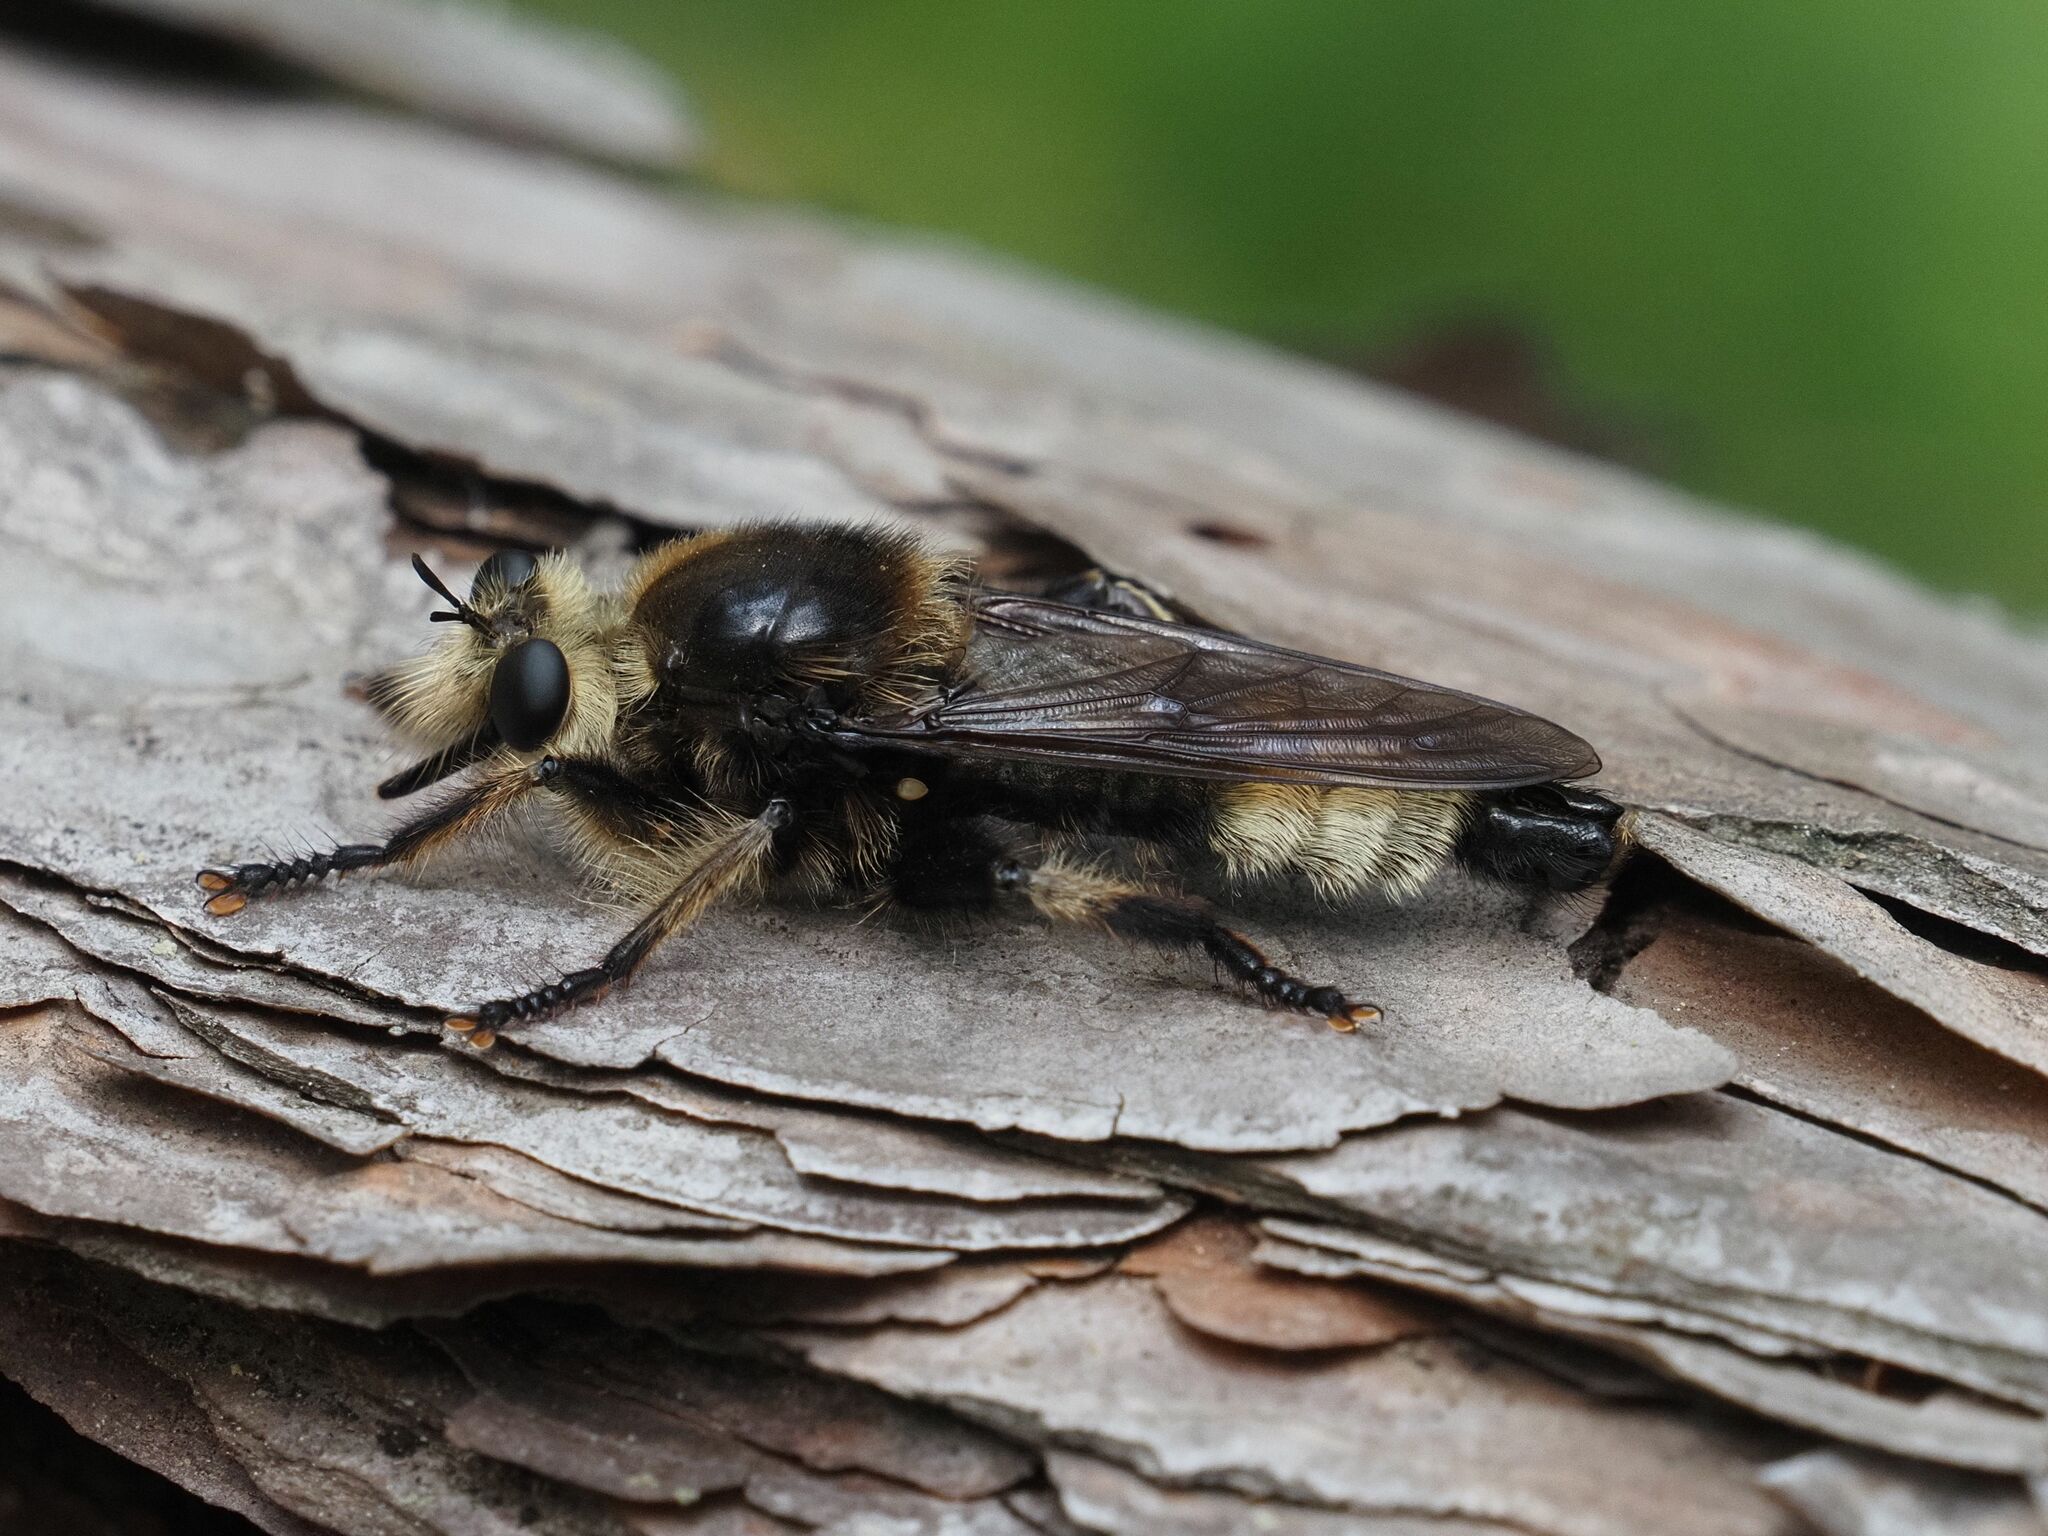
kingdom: Animalia
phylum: Arthropoda
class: Insecta
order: Diptera
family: Asilidae
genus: Laphria
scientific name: Laphria gibbosa
